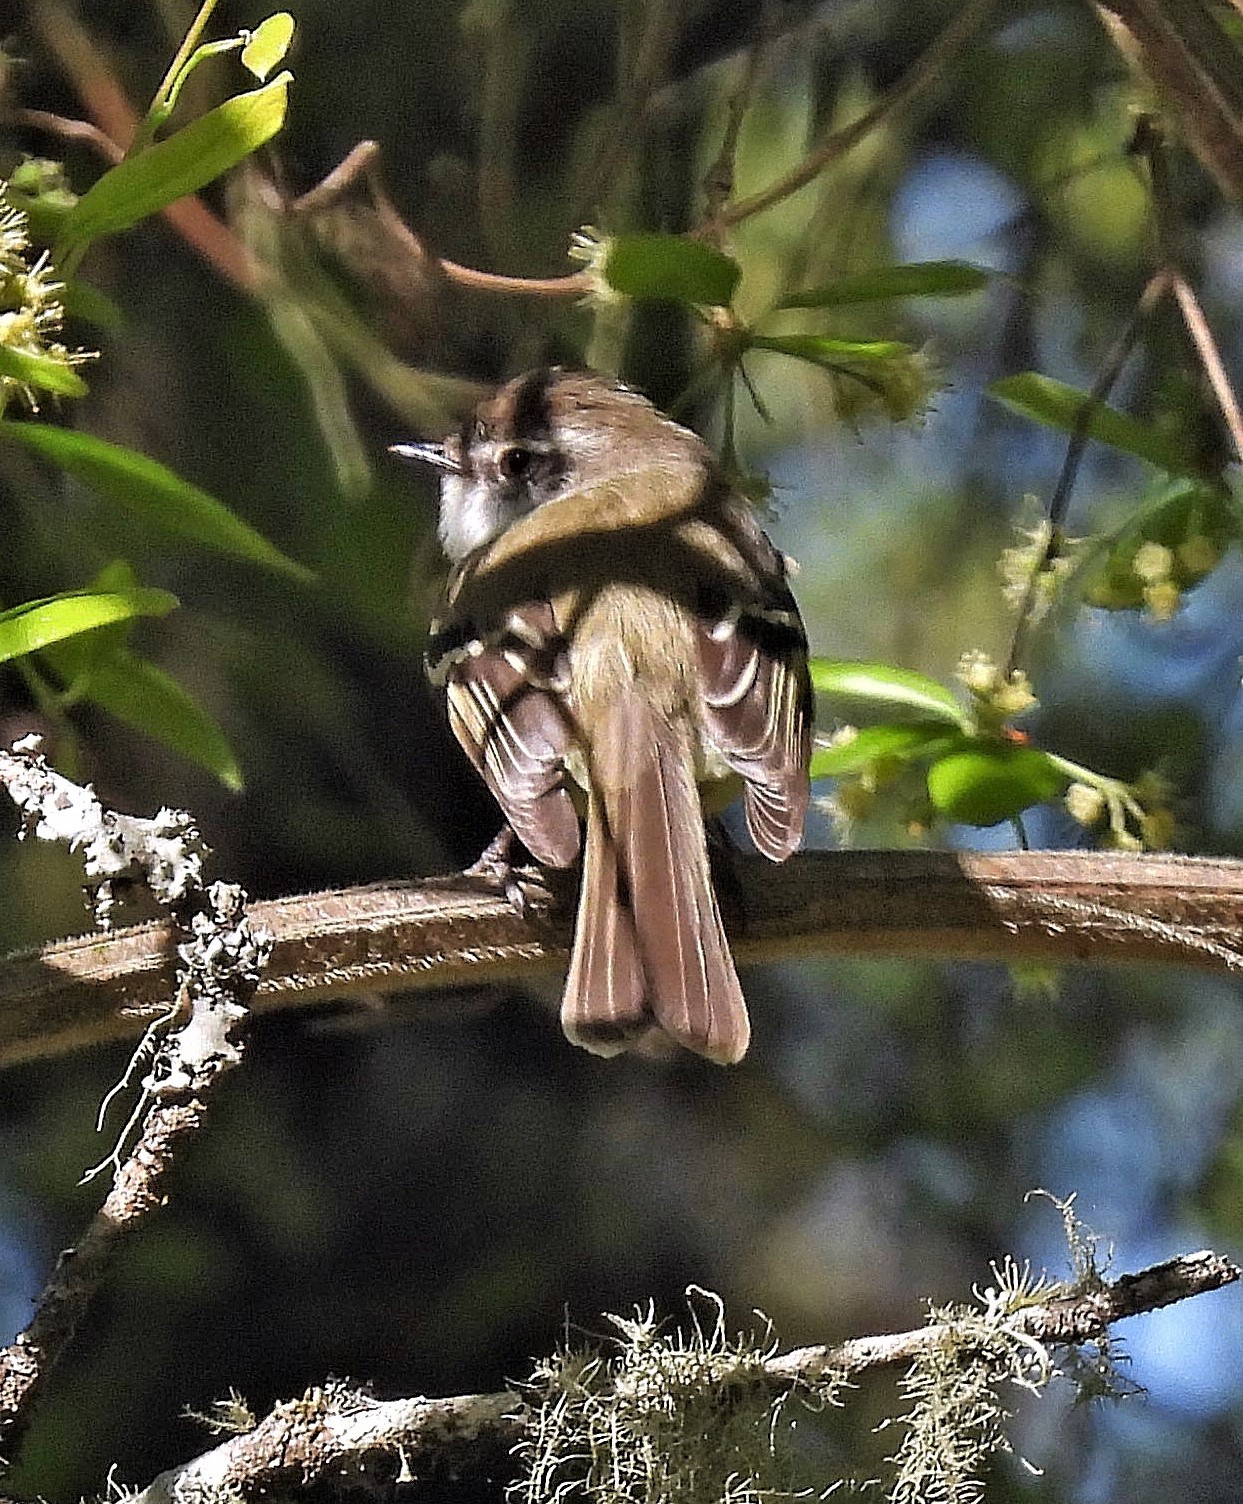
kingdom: Animalia
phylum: Chordata
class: Aves
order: Passeriformes
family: Tyrannidae
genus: Mecocerculus
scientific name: Mecocerculus leucophrys
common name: White-throated tyrannulet
